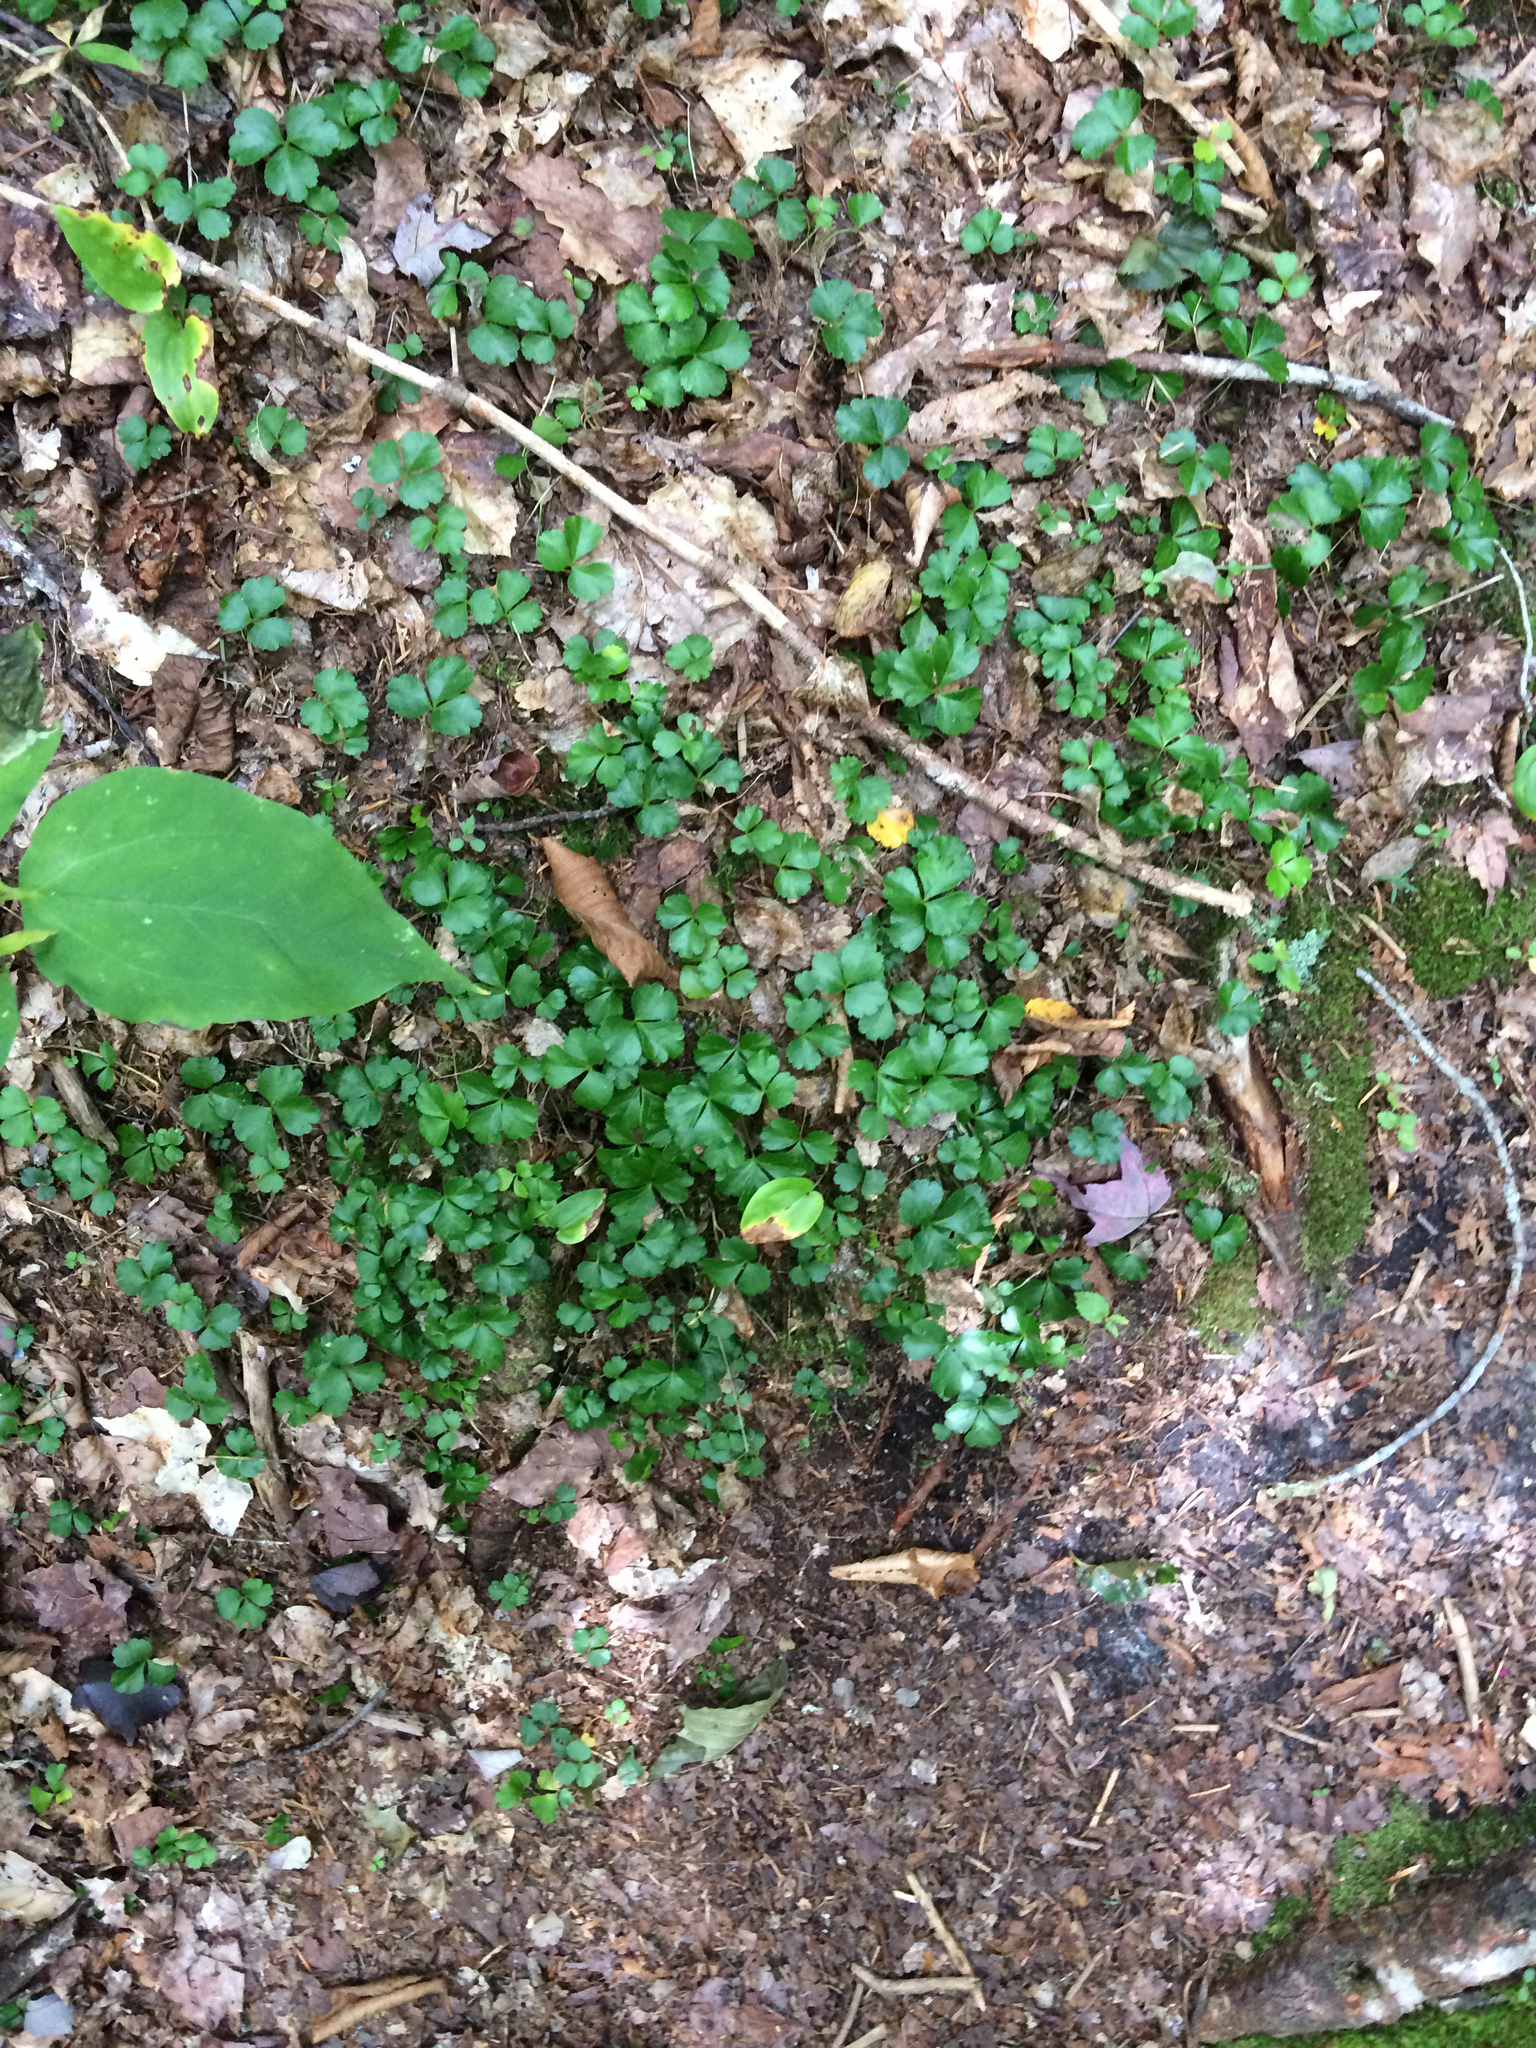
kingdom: Plantae
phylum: Tracheophyta
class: Magnoliopsida
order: Ranunculales
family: Ranunculaceae
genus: Coptis
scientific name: Coptis trifolia
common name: Canker-root
